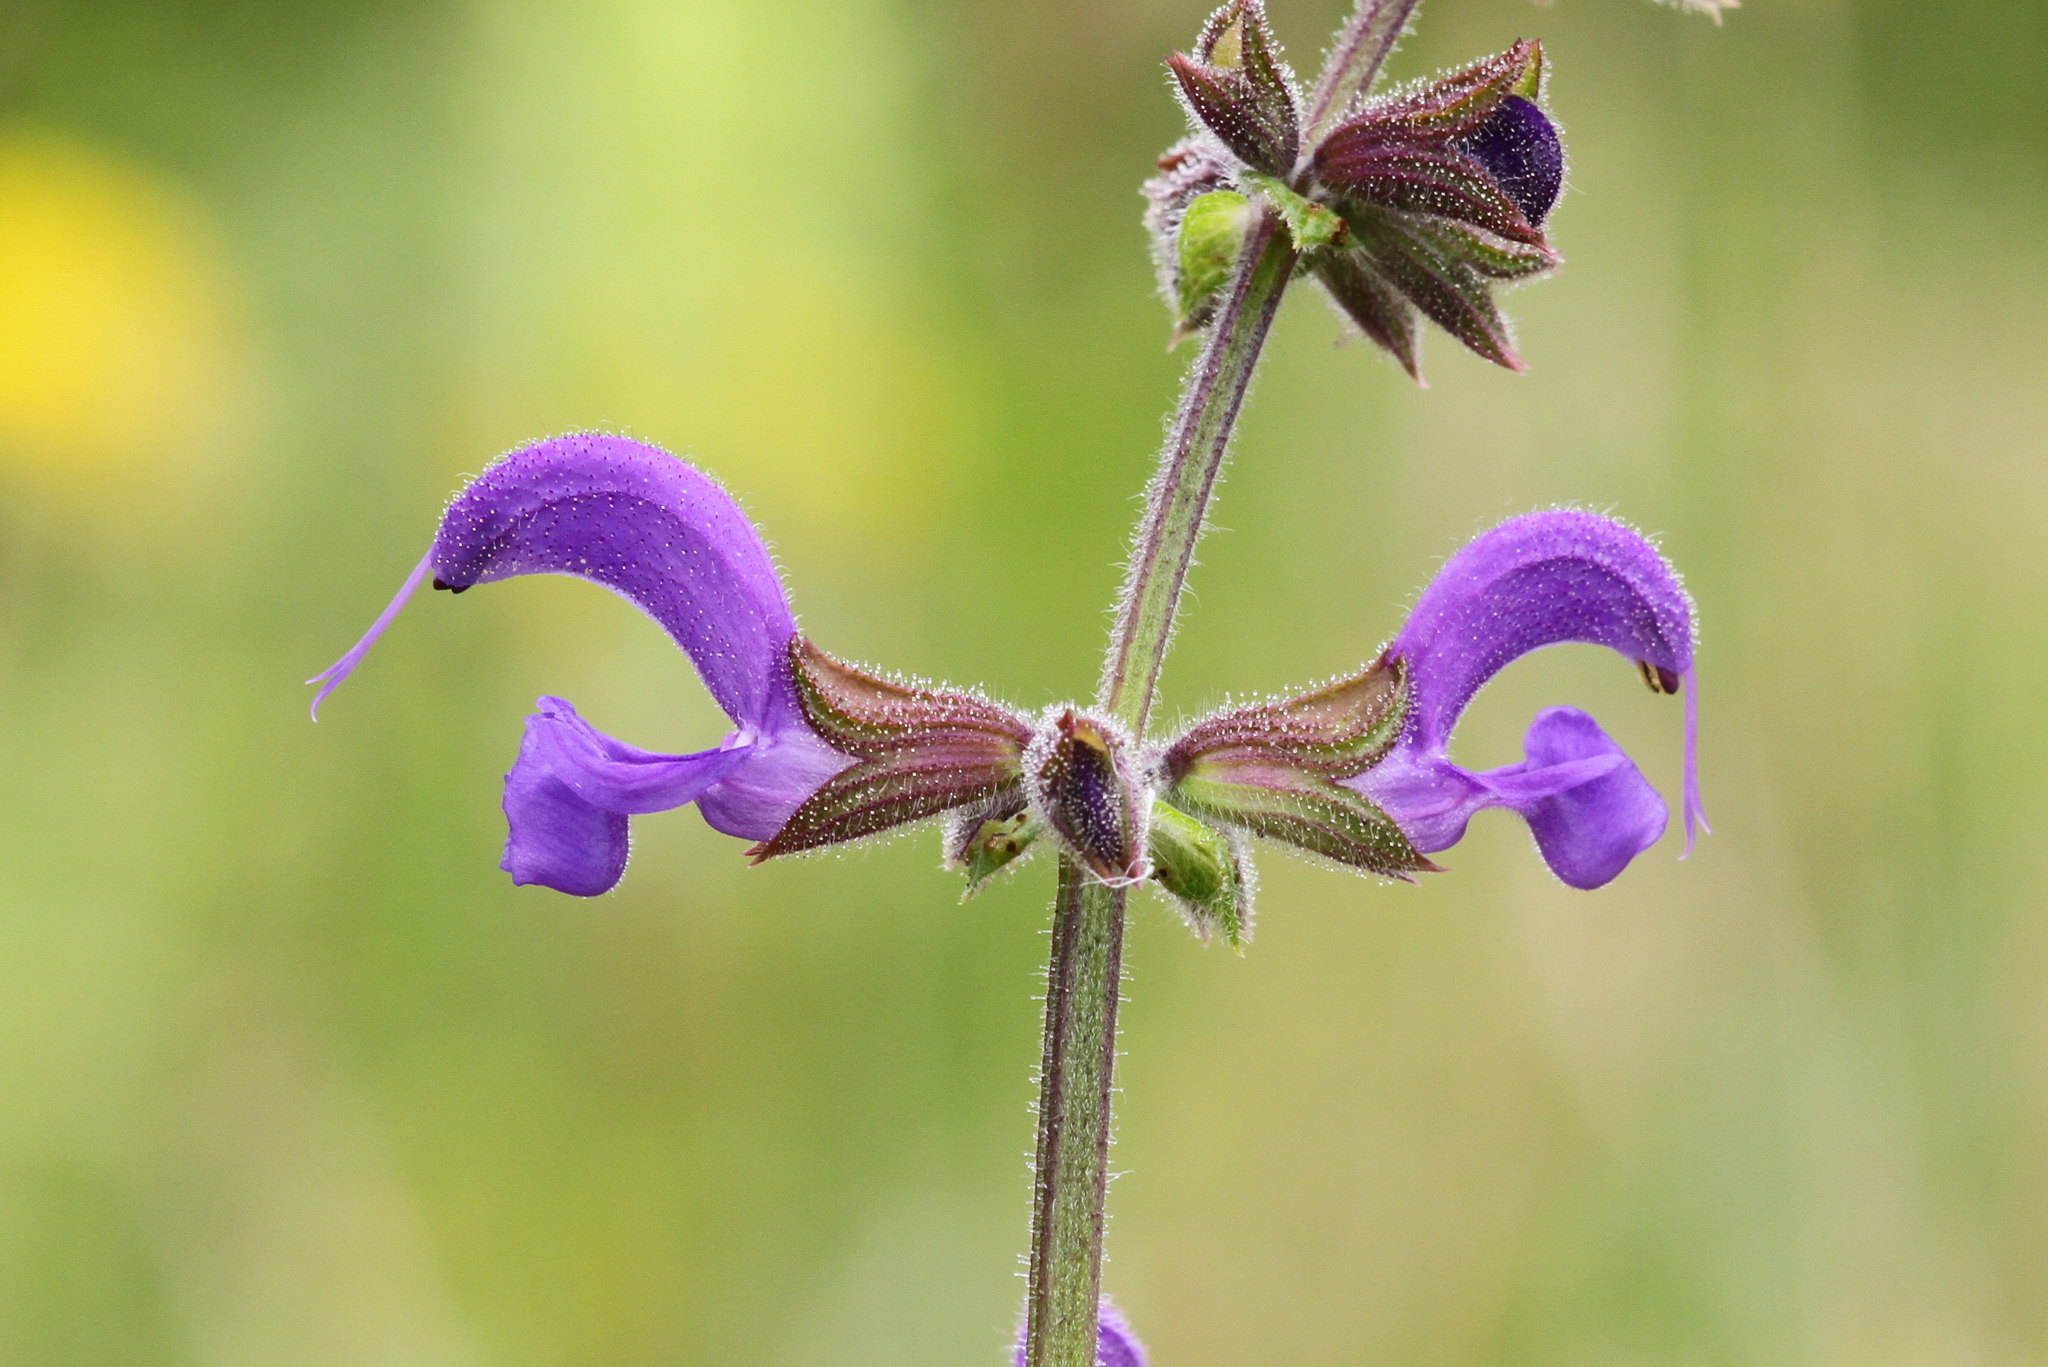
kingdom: Plantae
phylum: Tracheophyta
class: Magnoliopsida
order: Lamiales
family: Lamiaceae
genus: Salvia
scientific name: Salvia pratensis
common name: Meadow sage
